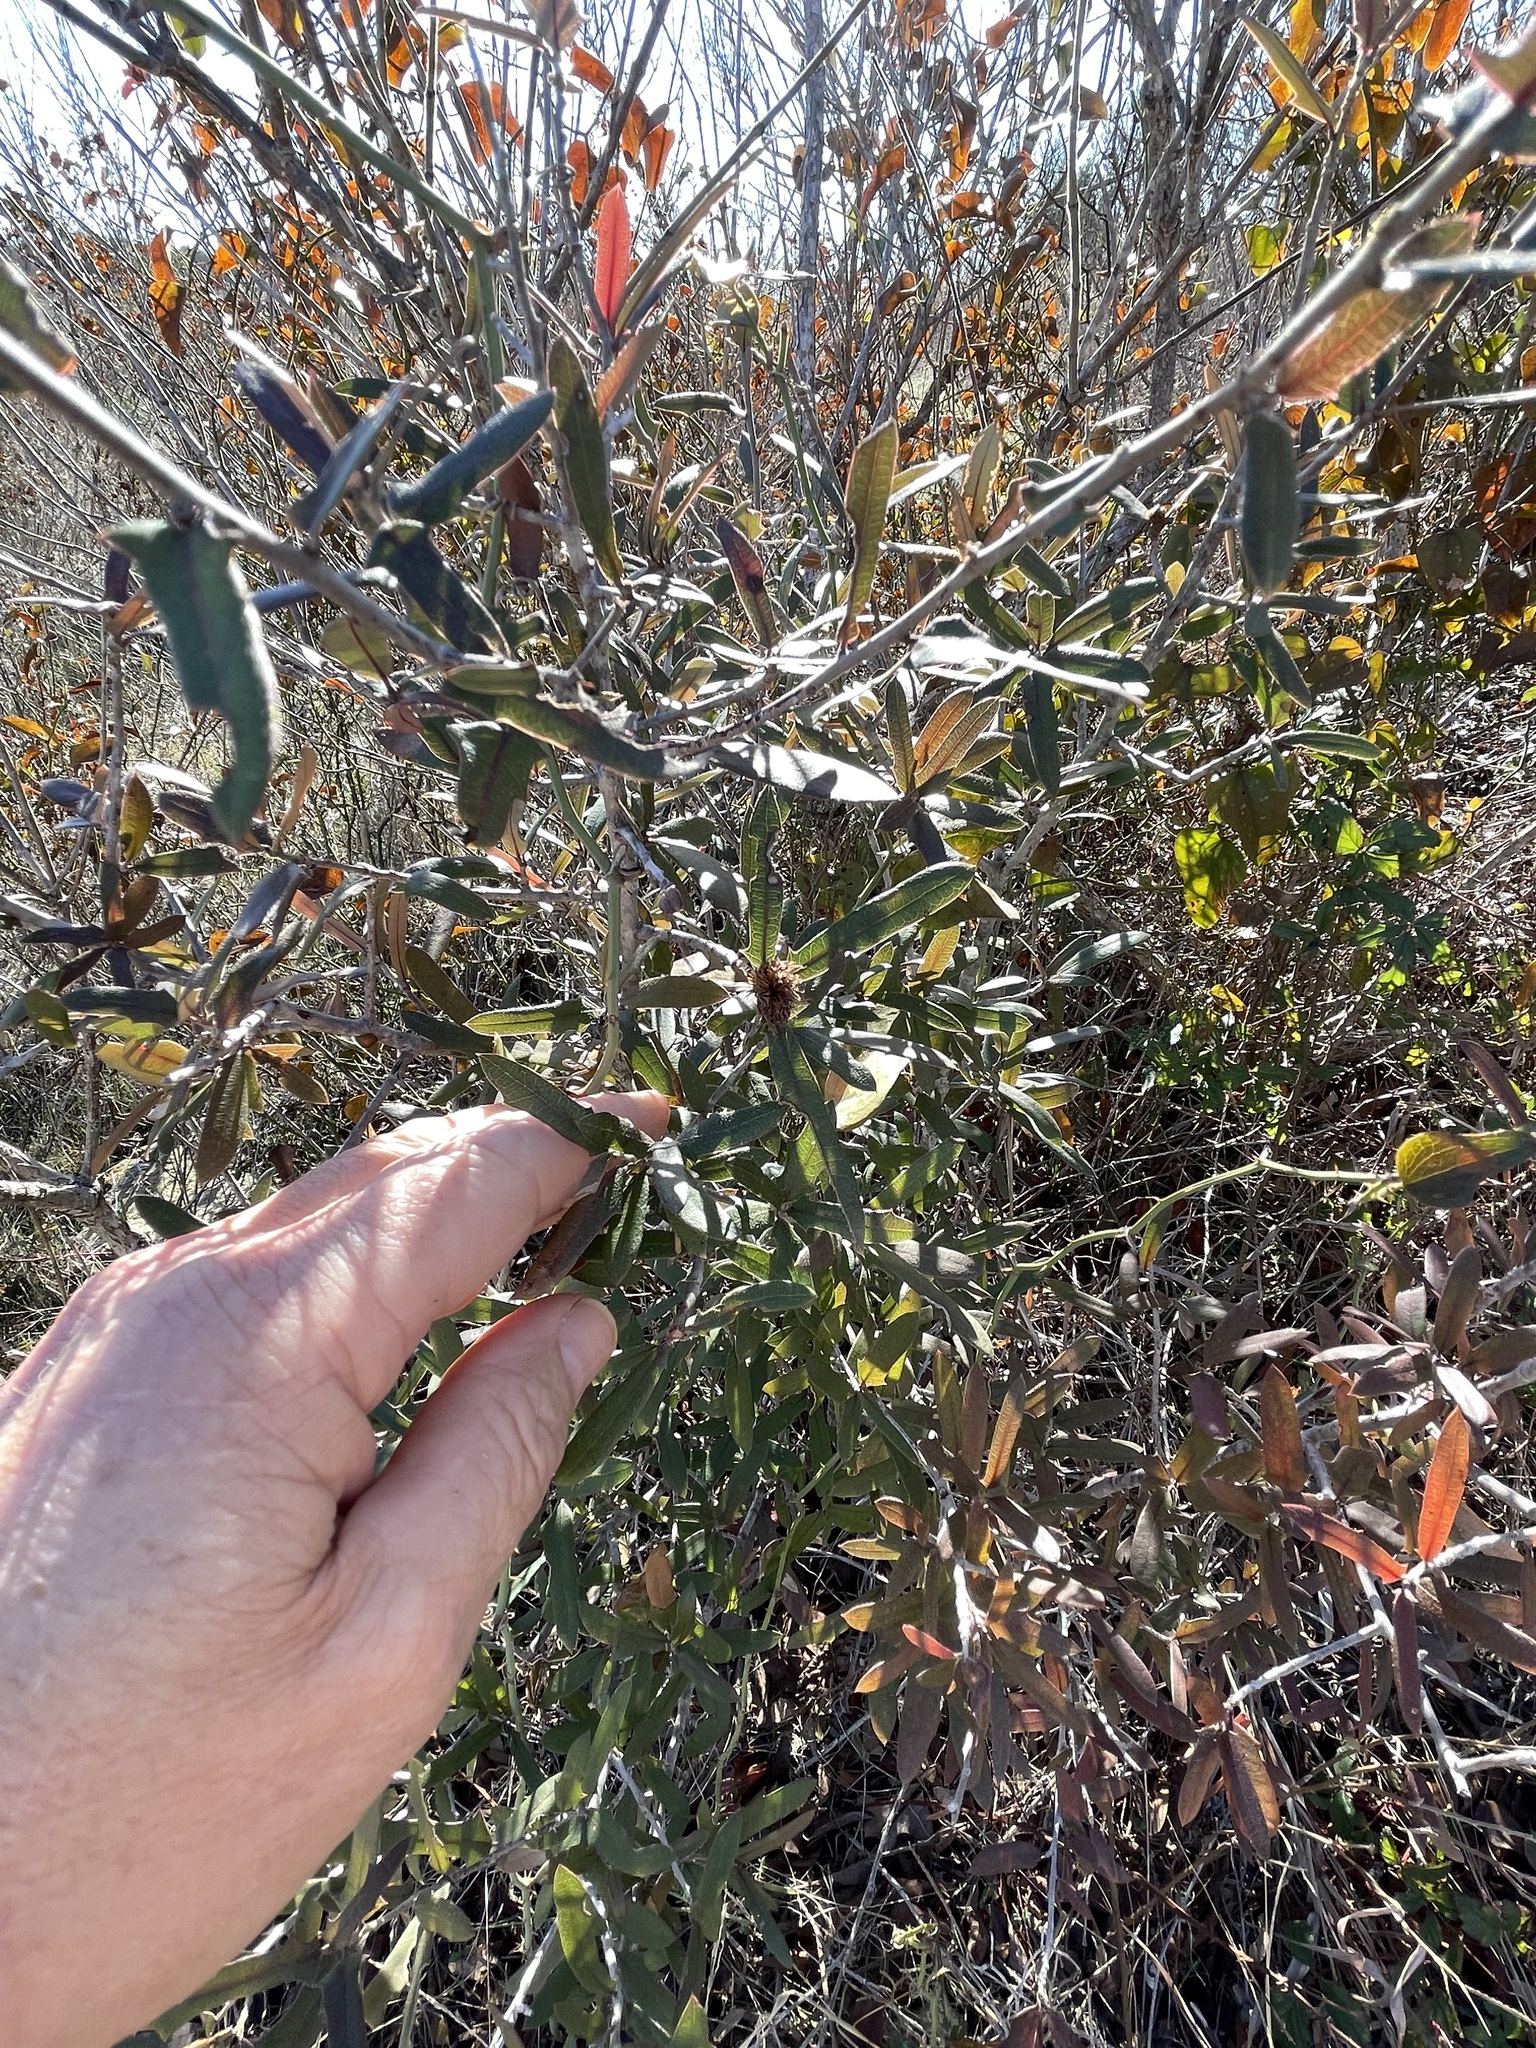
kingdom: Animalia
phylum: Arthropoda
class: Insecta
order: Hymenoptera
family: Cynipidae
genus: Andricus
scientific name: Andricus quercusfoliatus
